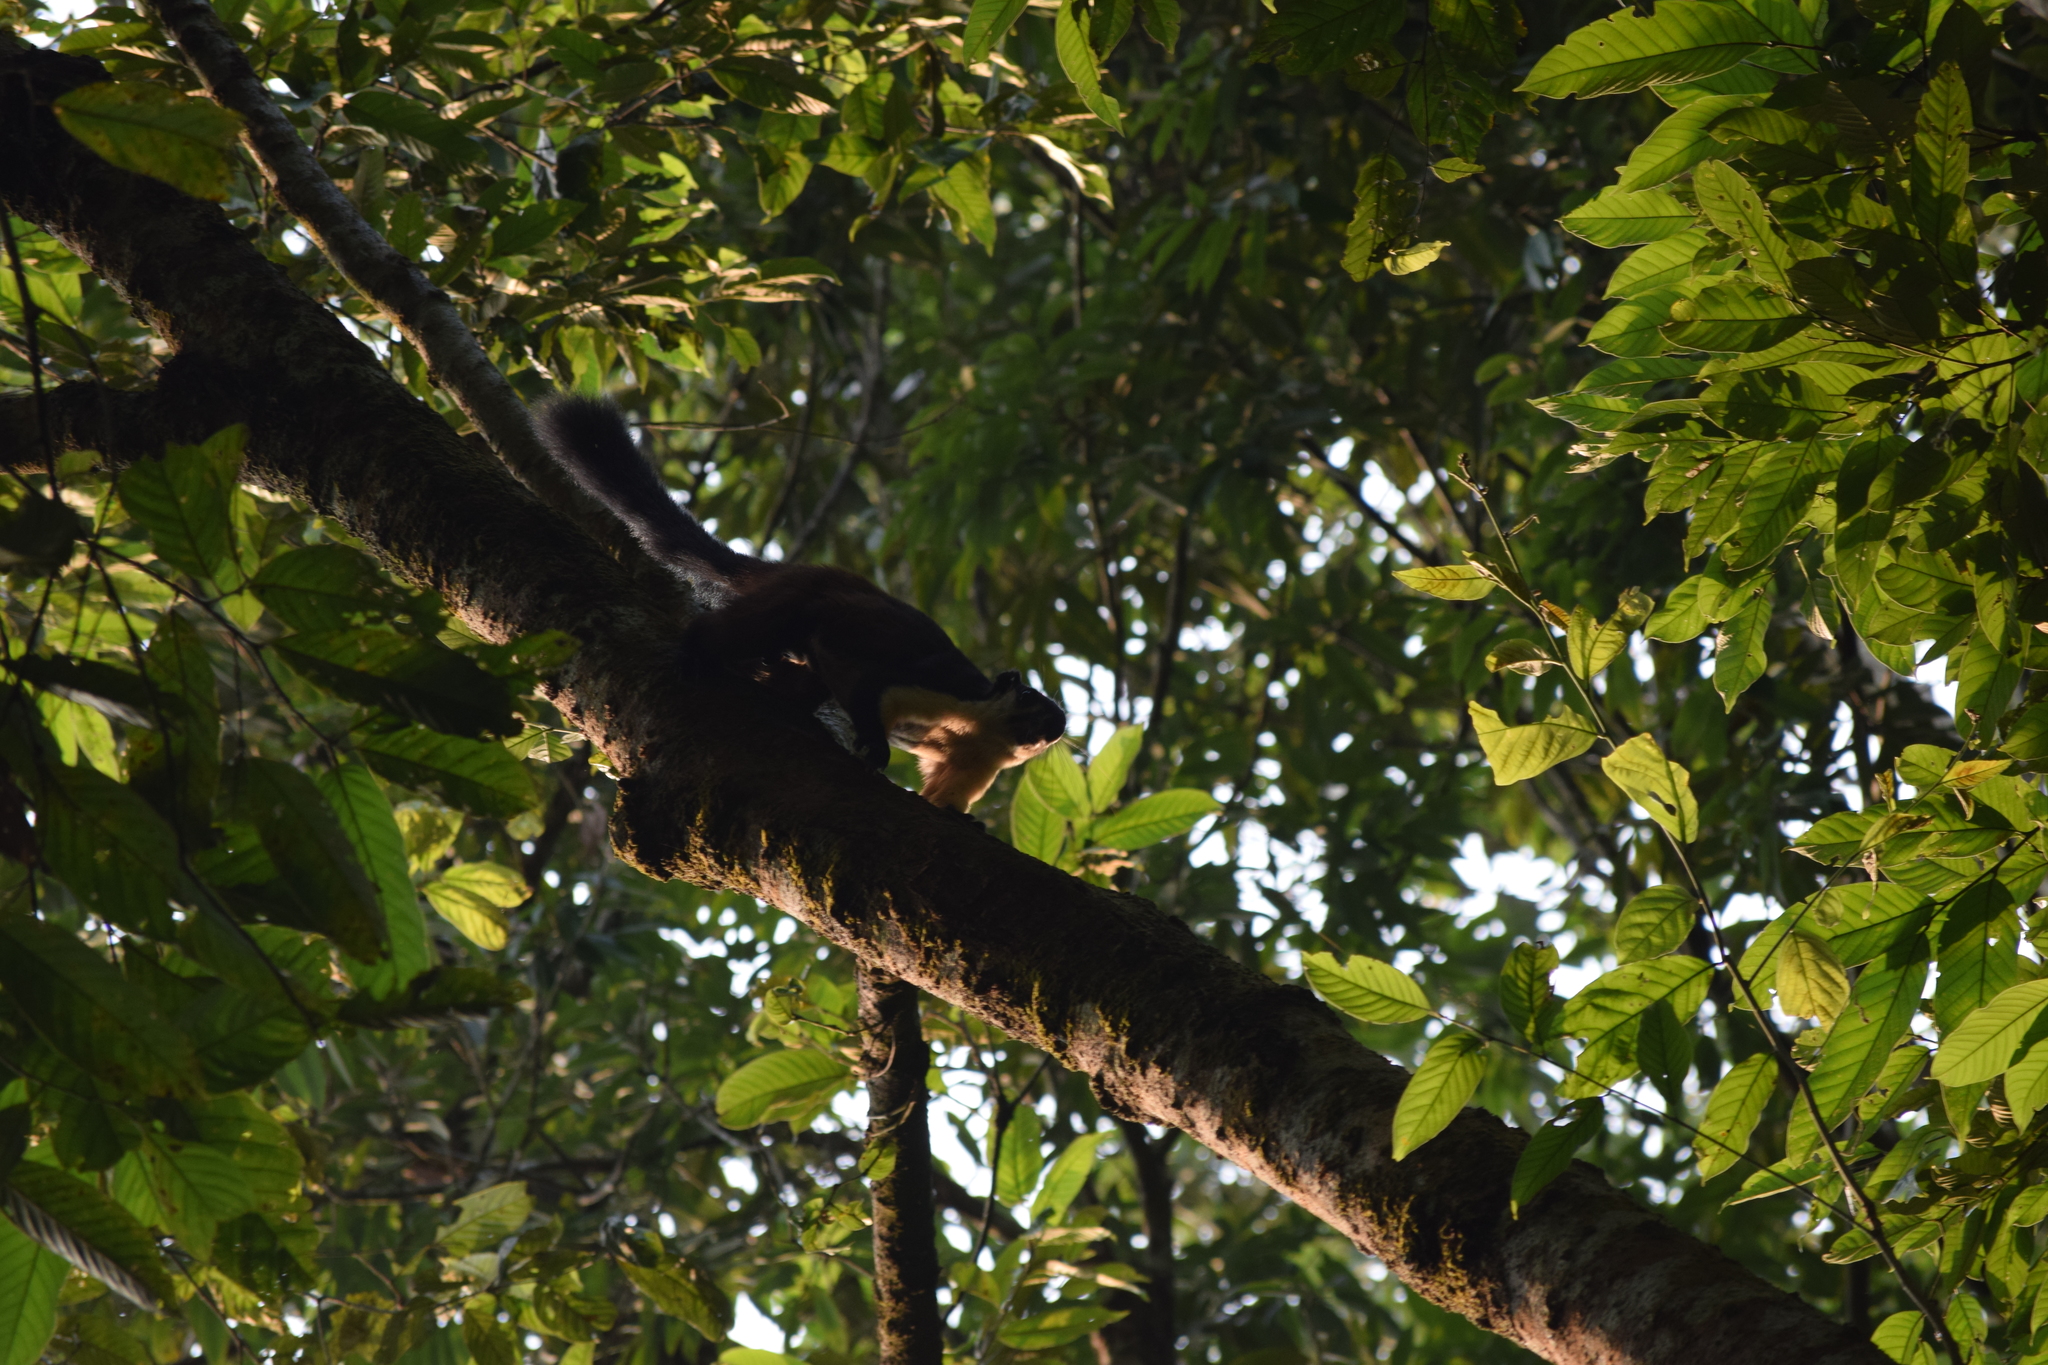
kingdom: Animalia
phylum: Chordata
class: Mammalia
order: Rodentia
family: Sciuridae
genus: Ratufa
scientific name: Ratufa bicolor
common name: Black giant squirrel
